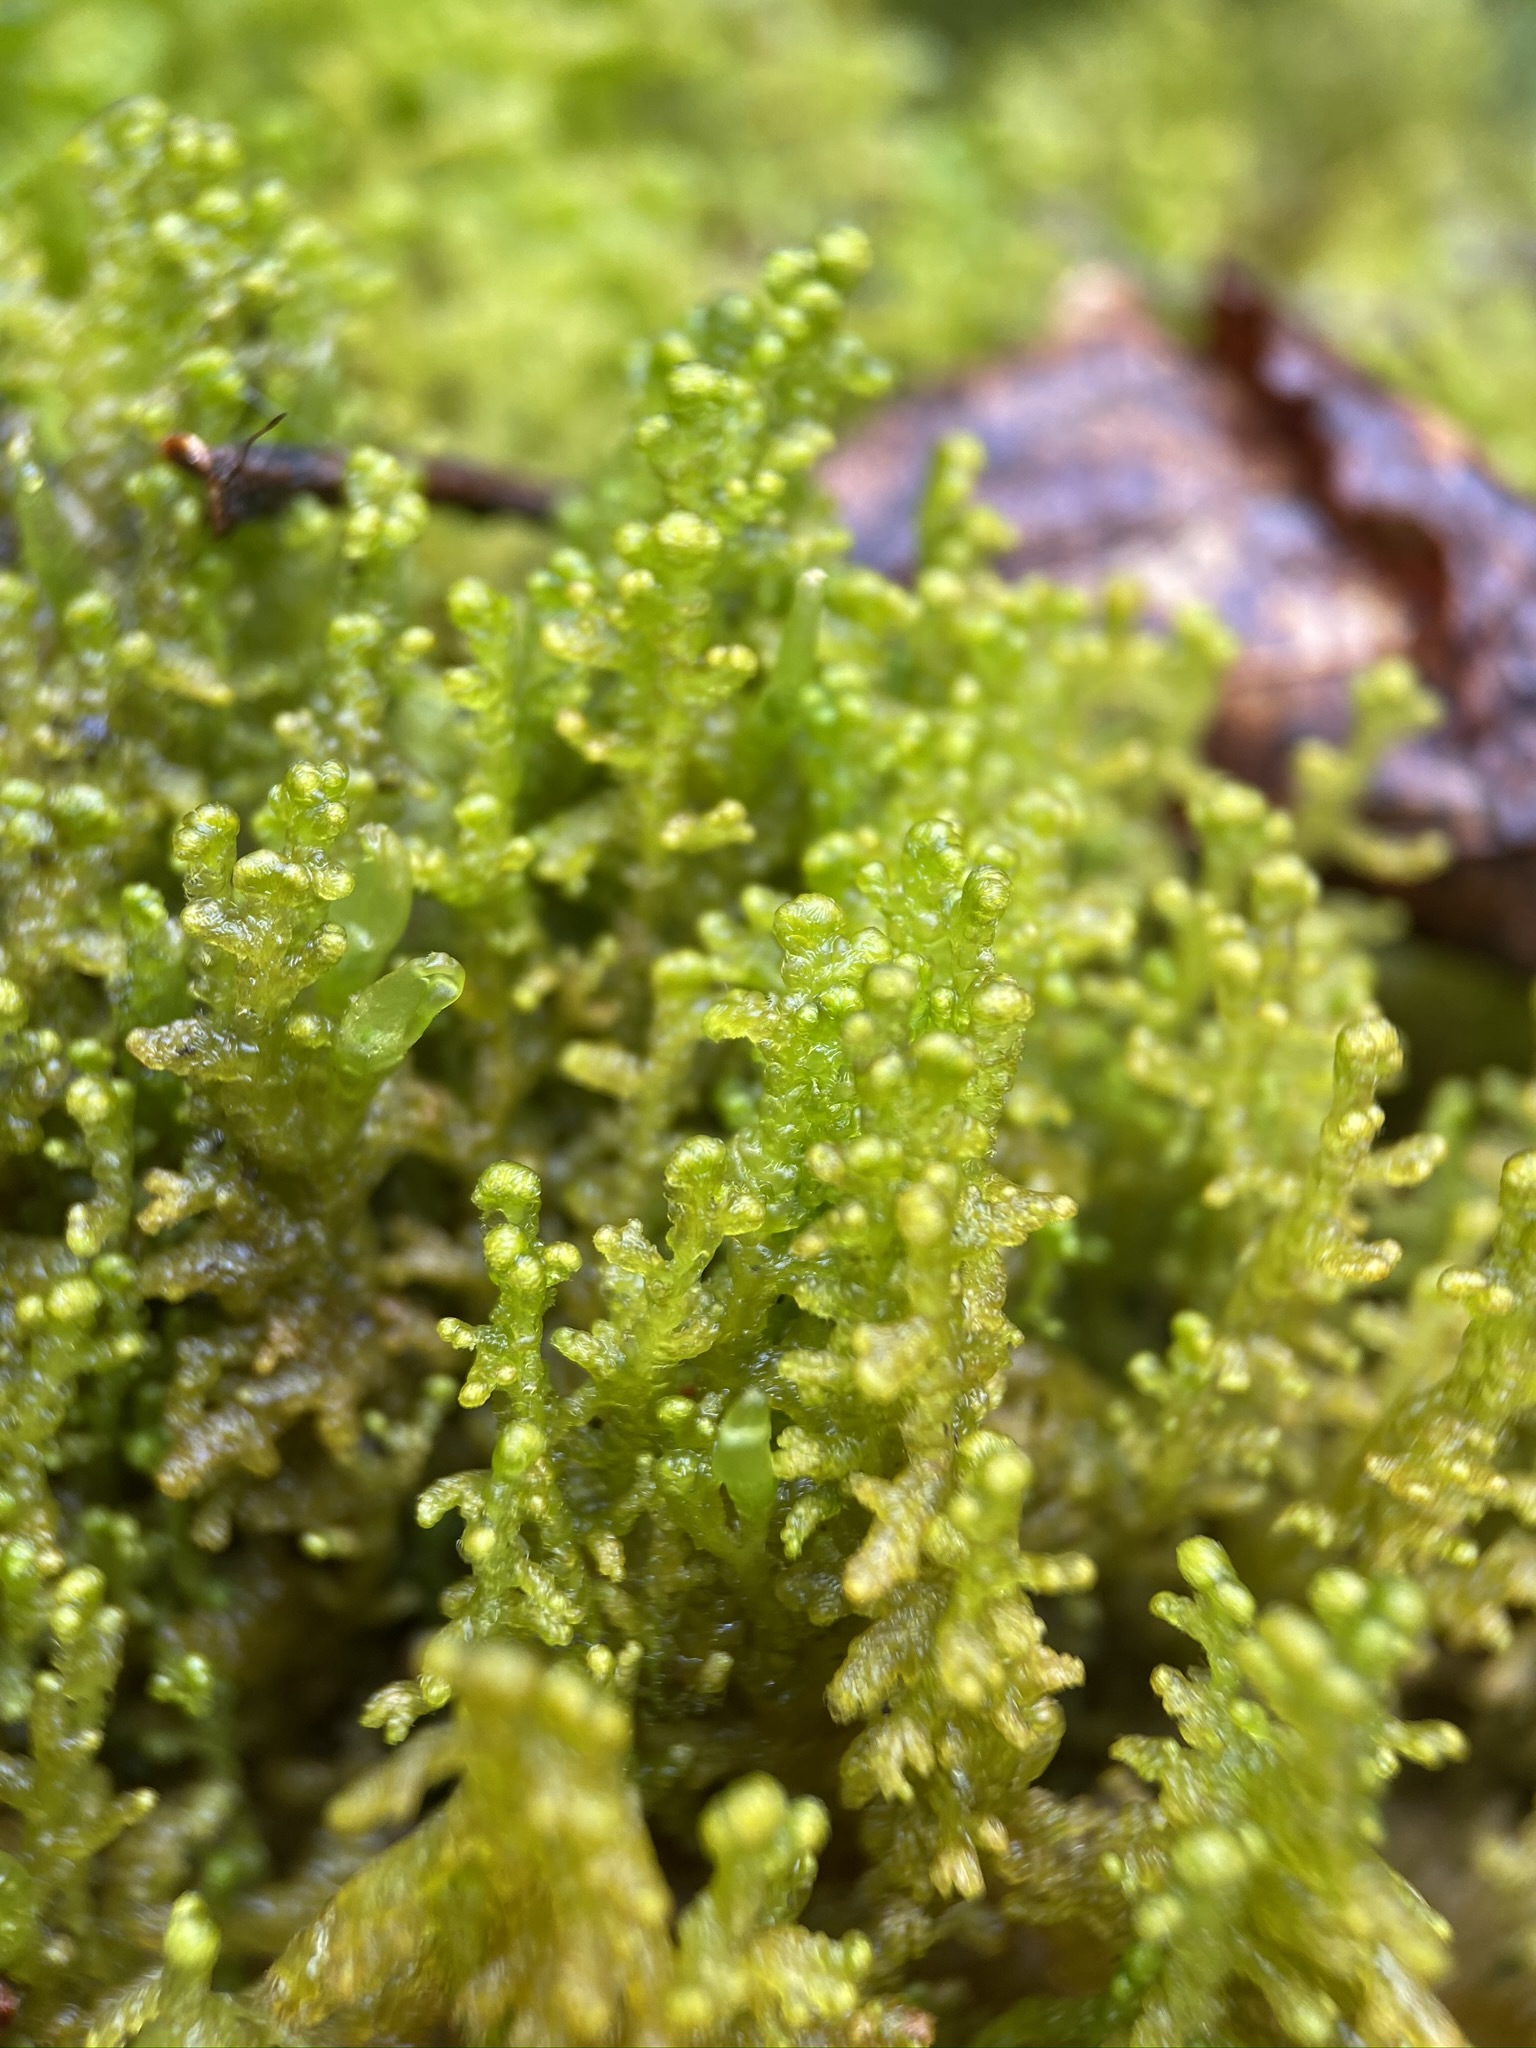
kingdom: Plantae
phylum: Marchantiophyta
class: Jungermanniopsida
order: Ptilidiales
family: Ptilidiaceae
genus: Ptilidium
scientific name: Ptilidium ciliare
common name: Ciliate fringewort
